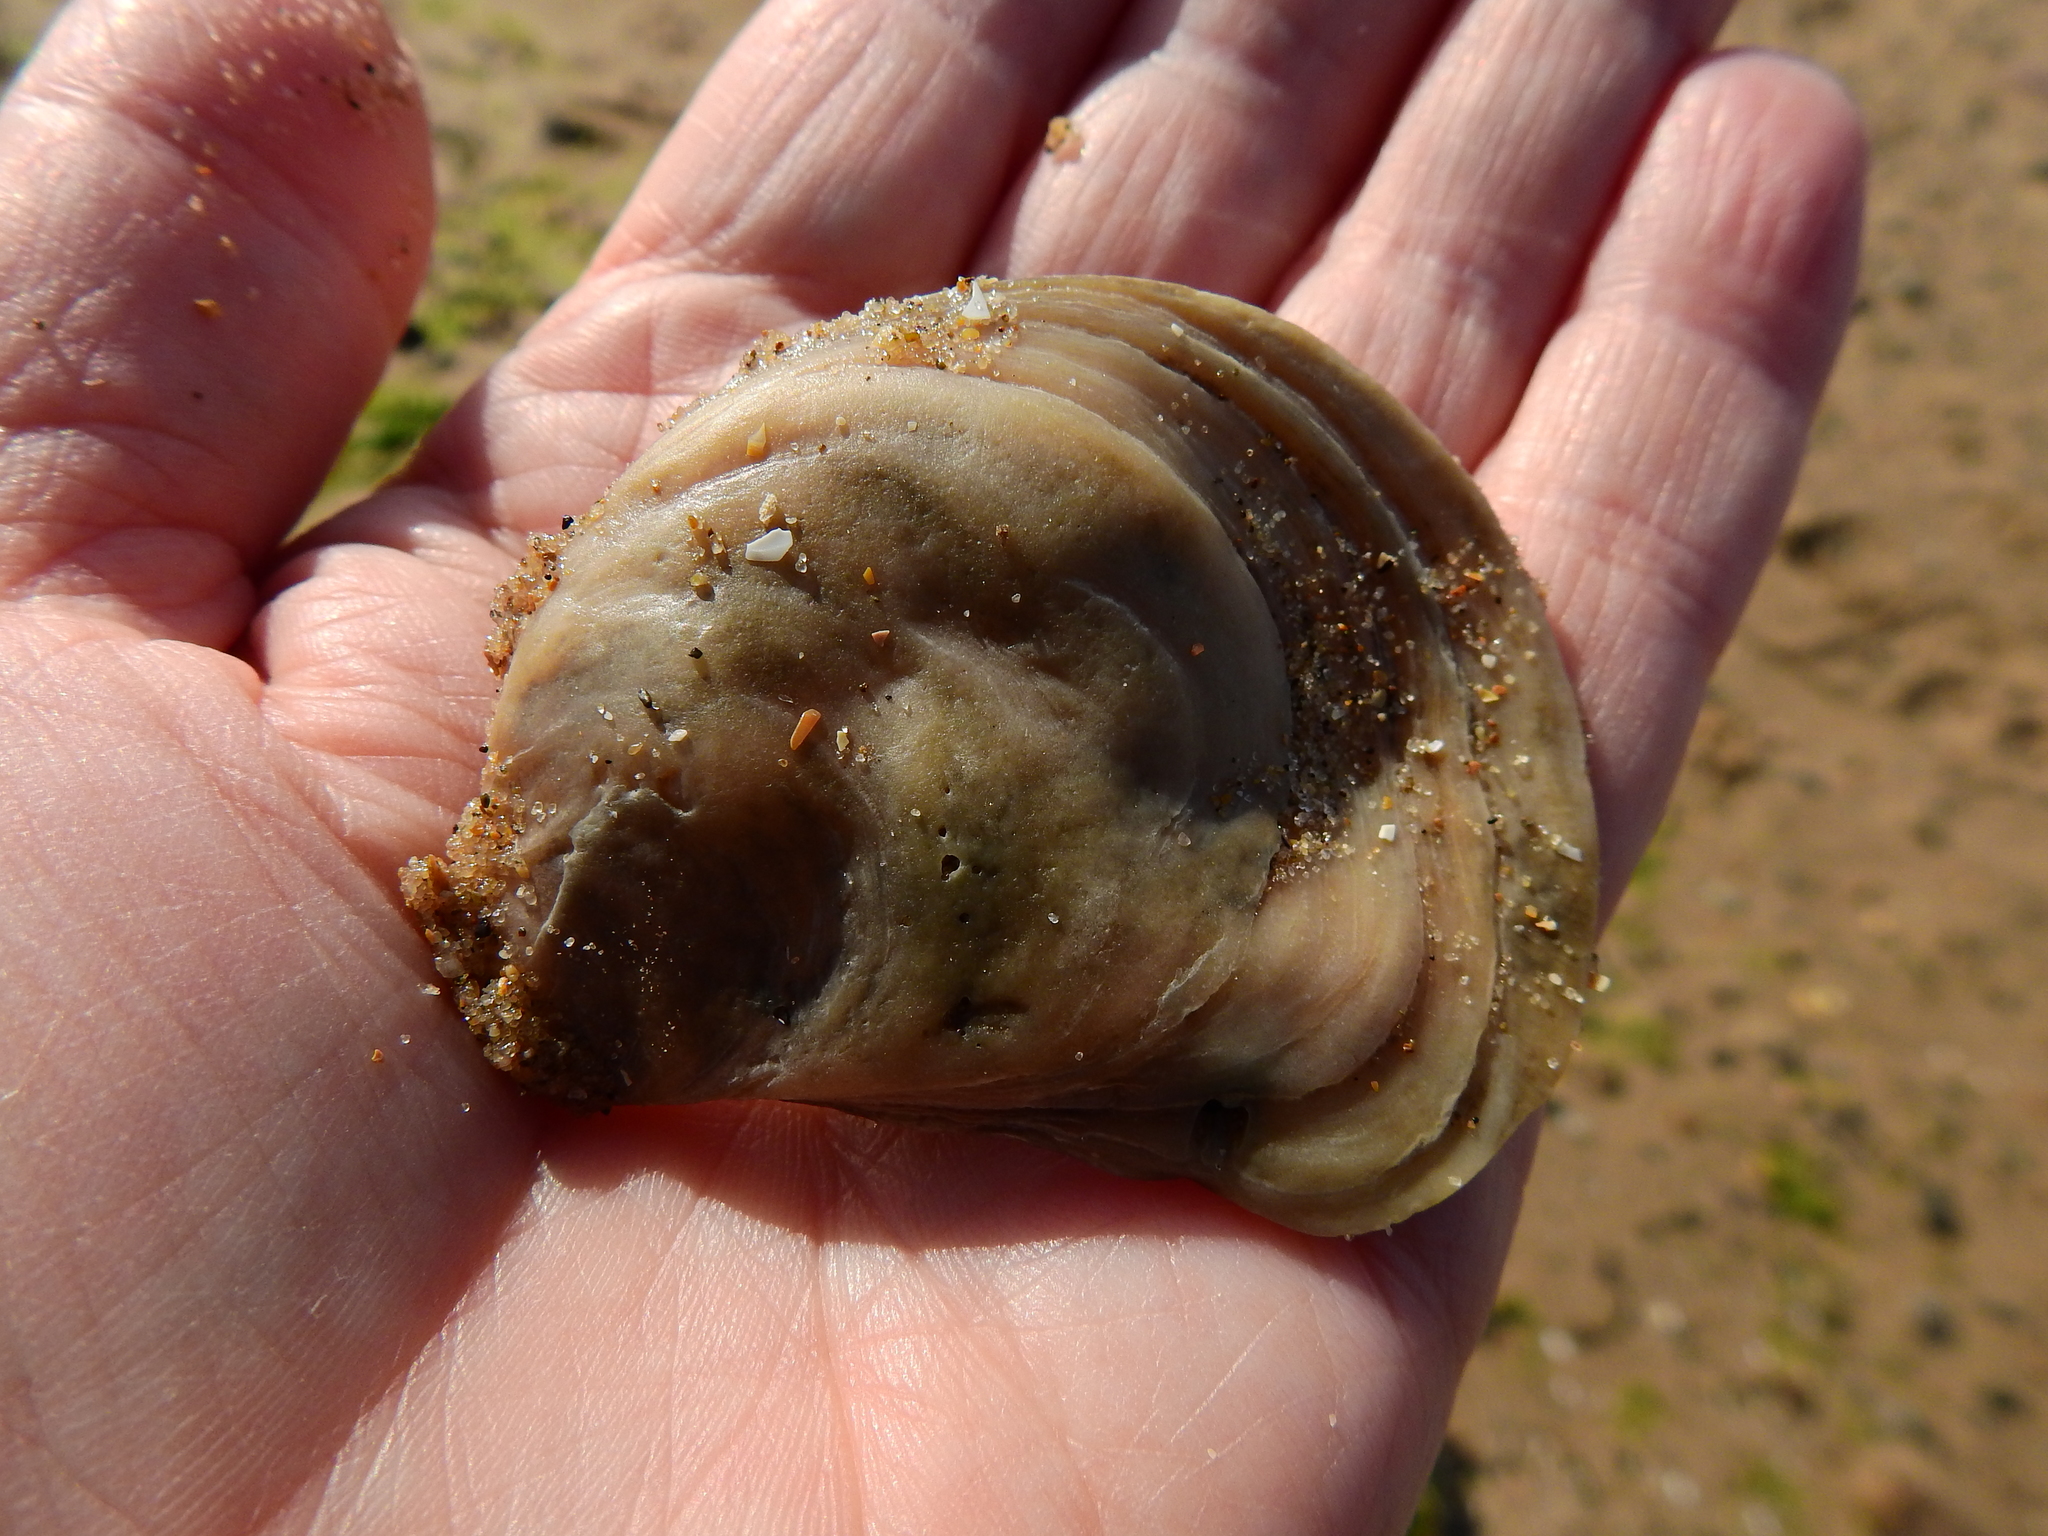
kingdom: Animalia
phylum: Mollusca
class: Bivalvia
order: Ostreida
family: Ostreidae
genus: Ostrea
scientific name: Ostrea edulis
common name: Flat oyster
